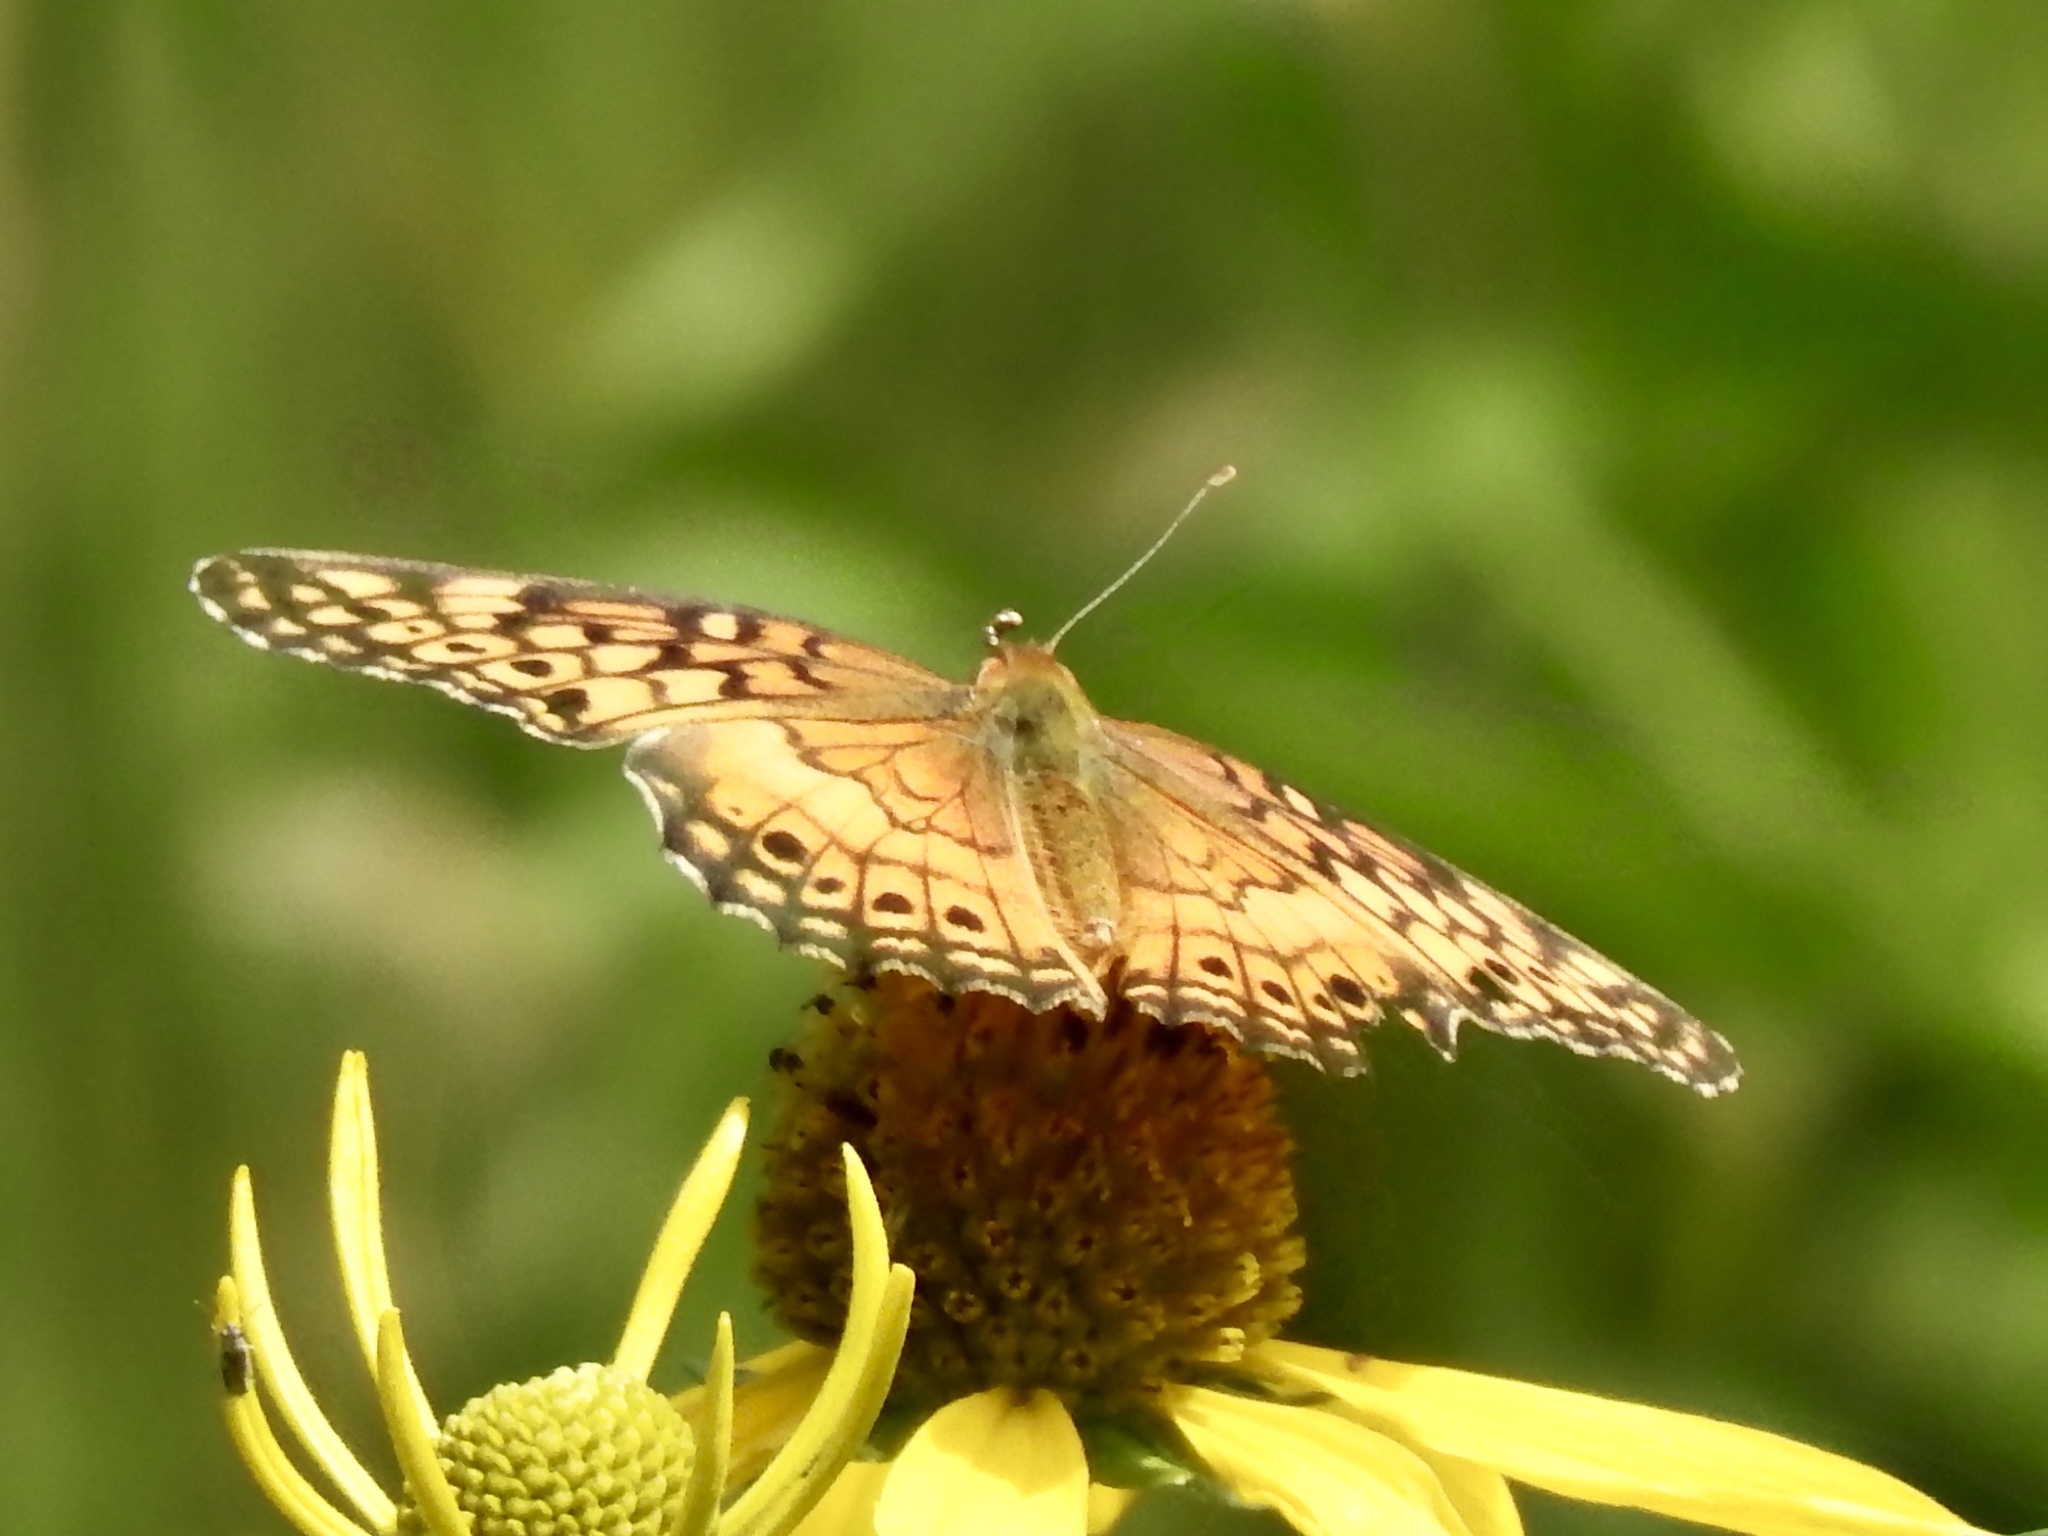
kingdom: Animalia
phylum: Arthropoda
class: Insecta
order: Lepidoptera
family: Nymphalidae
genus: Euptoieta
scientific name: Euptoieta claudia
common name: Variegated fritillary
